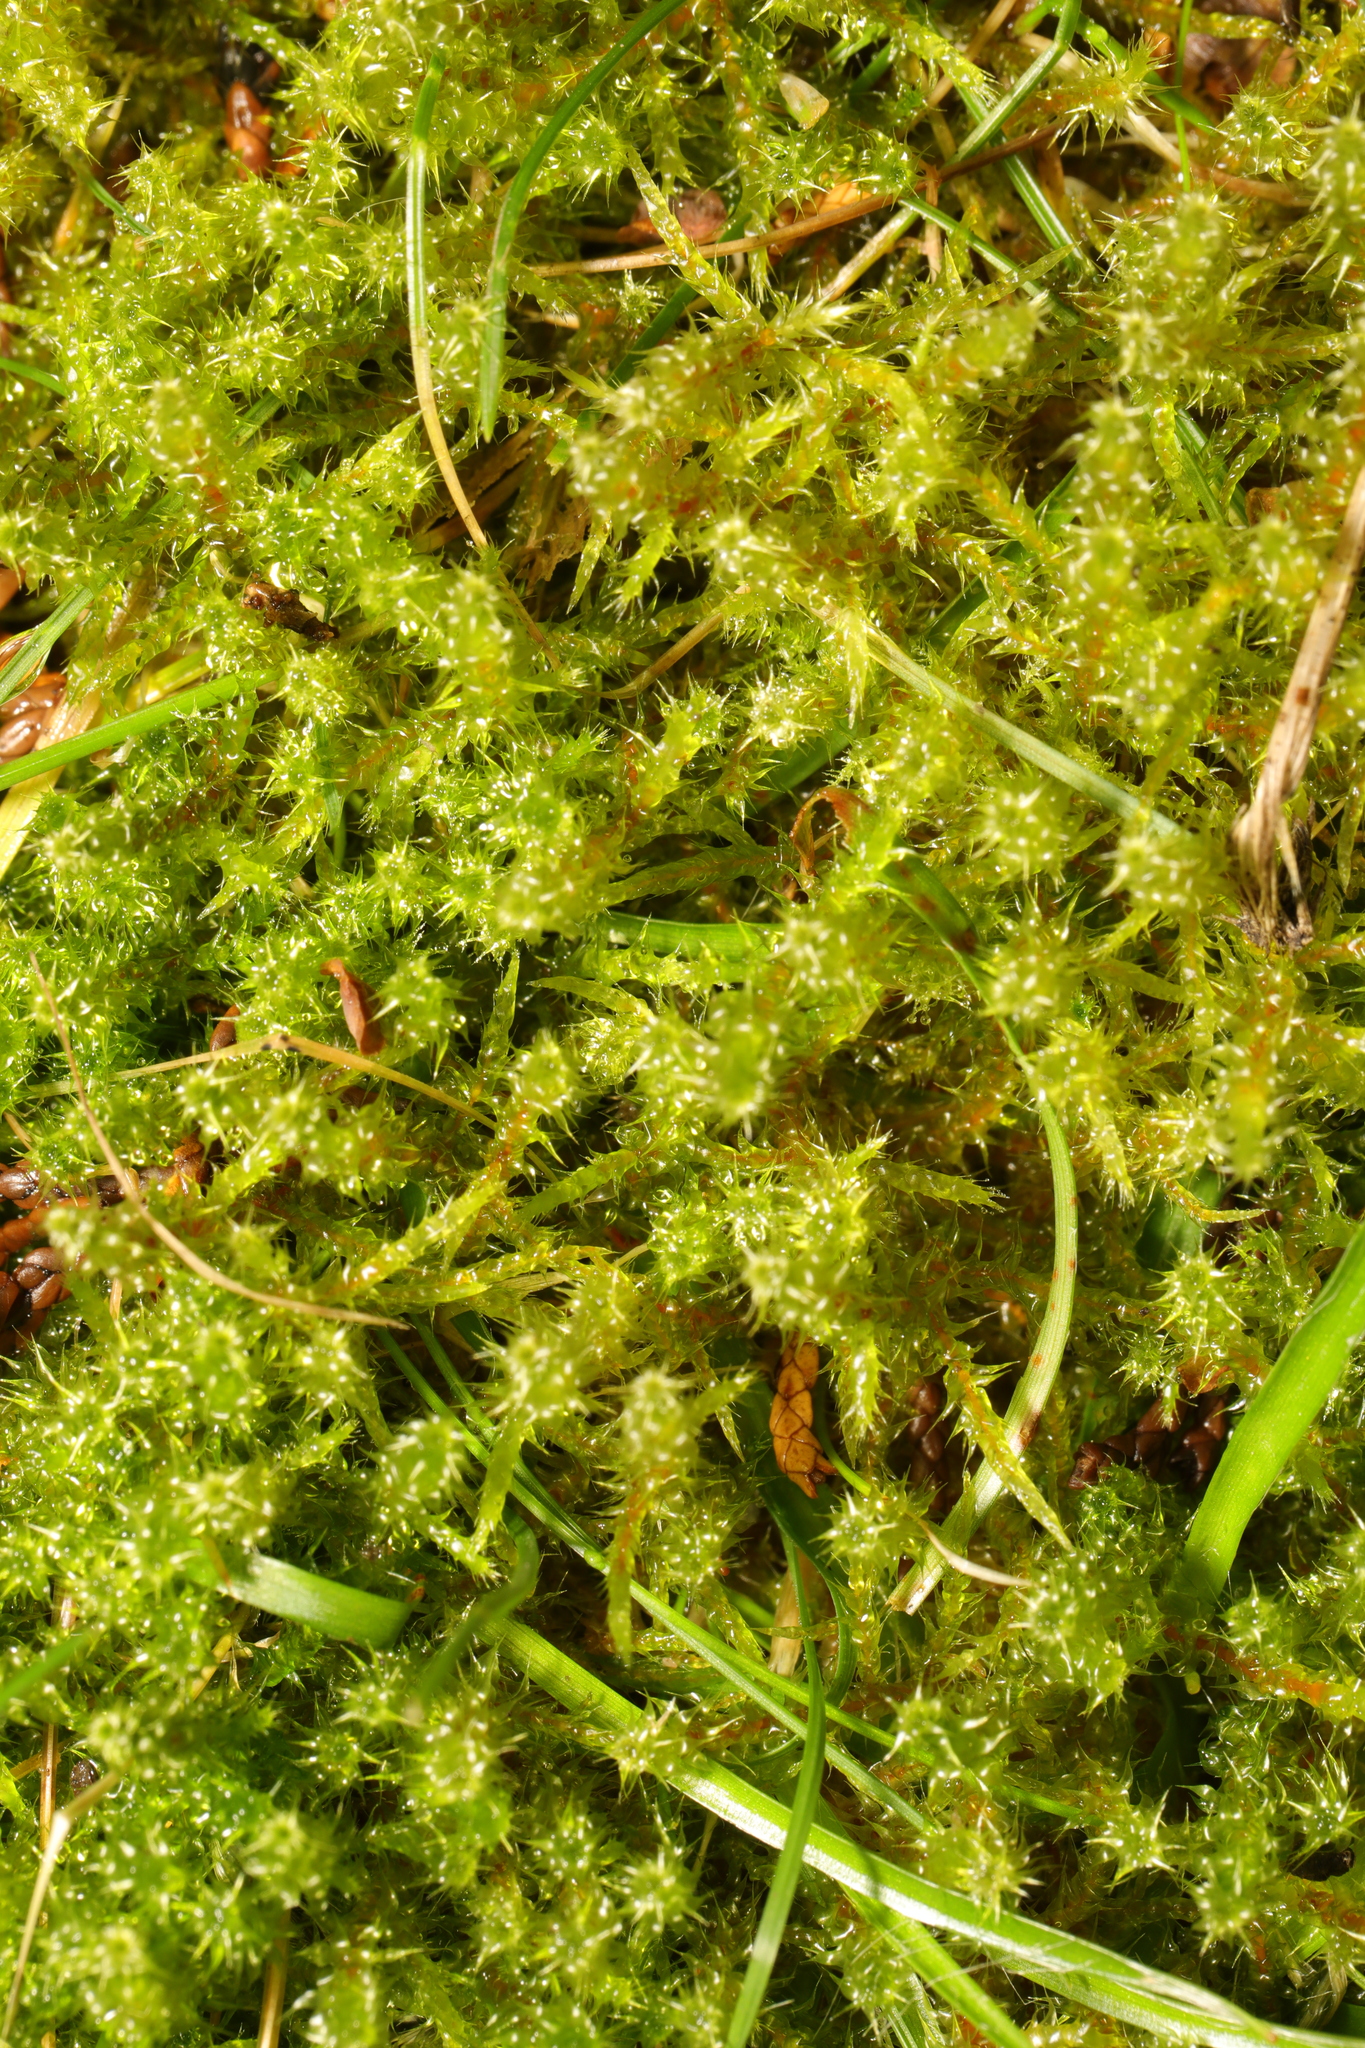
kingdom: Plantae
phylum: Bryophyta
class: Bryopsida
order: Hypnales
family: Hylocomiaceae
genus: Rhytidiadelphus
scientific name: Rhytidiadelphus squarrosus
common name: Springy turf-moss
